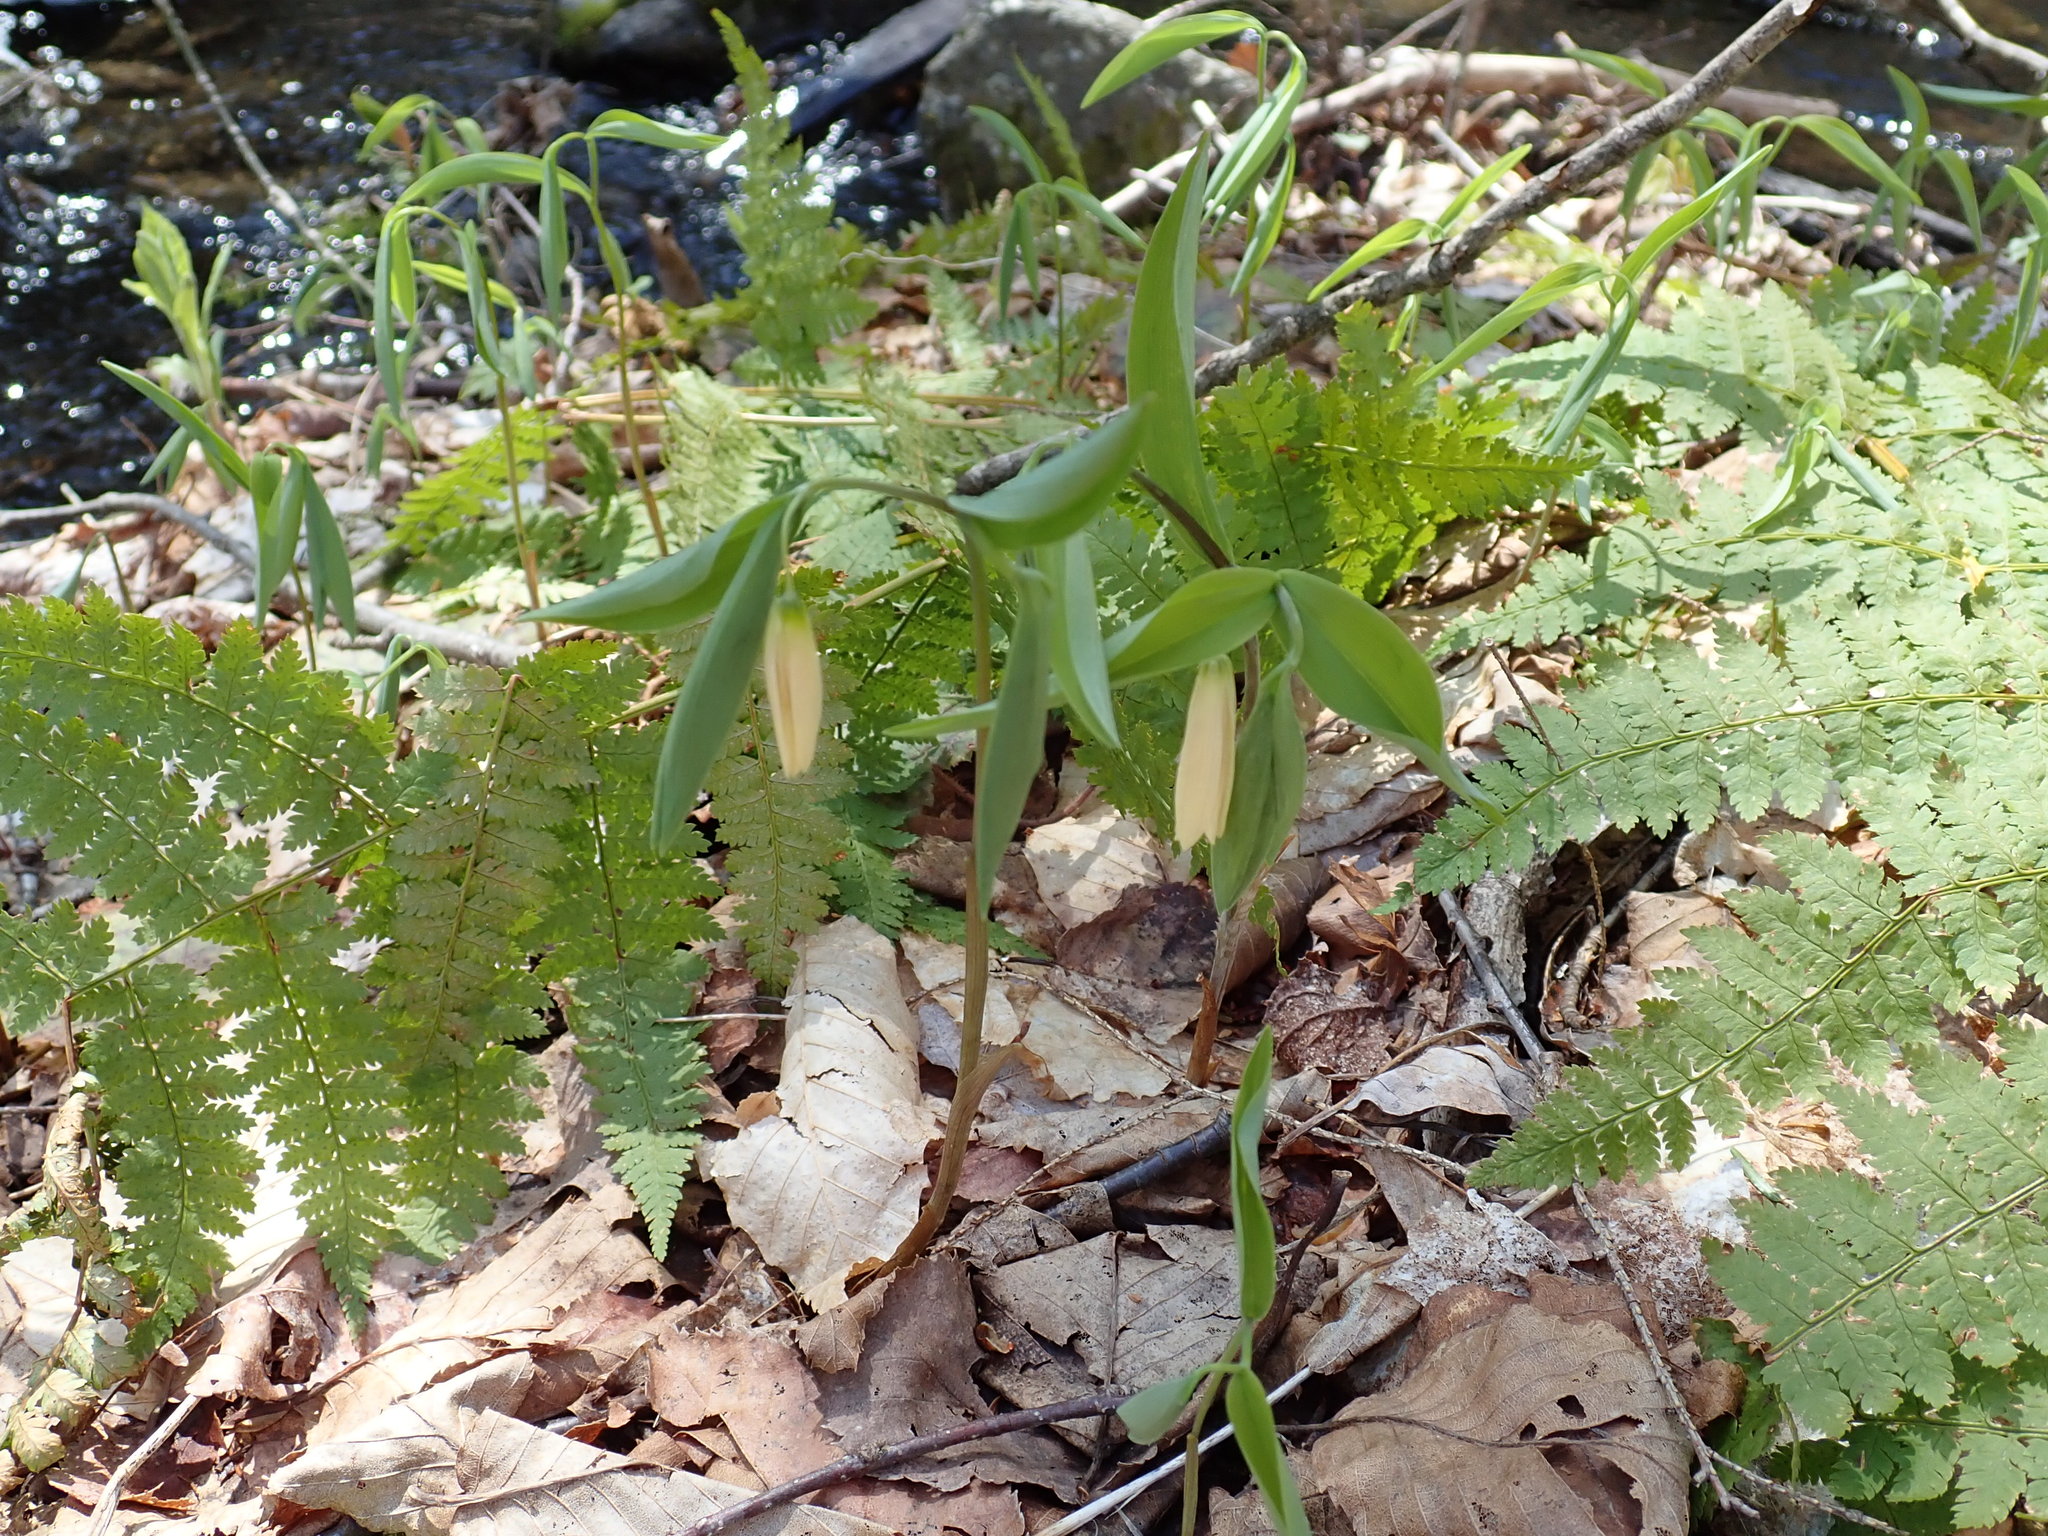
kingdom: Plantae
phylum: Tracheophyta
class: Liliopsida
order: Liliales
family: Colchicaceae
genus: Uvularia
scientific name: Uvularia sessilifolia
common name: Straw-lily
